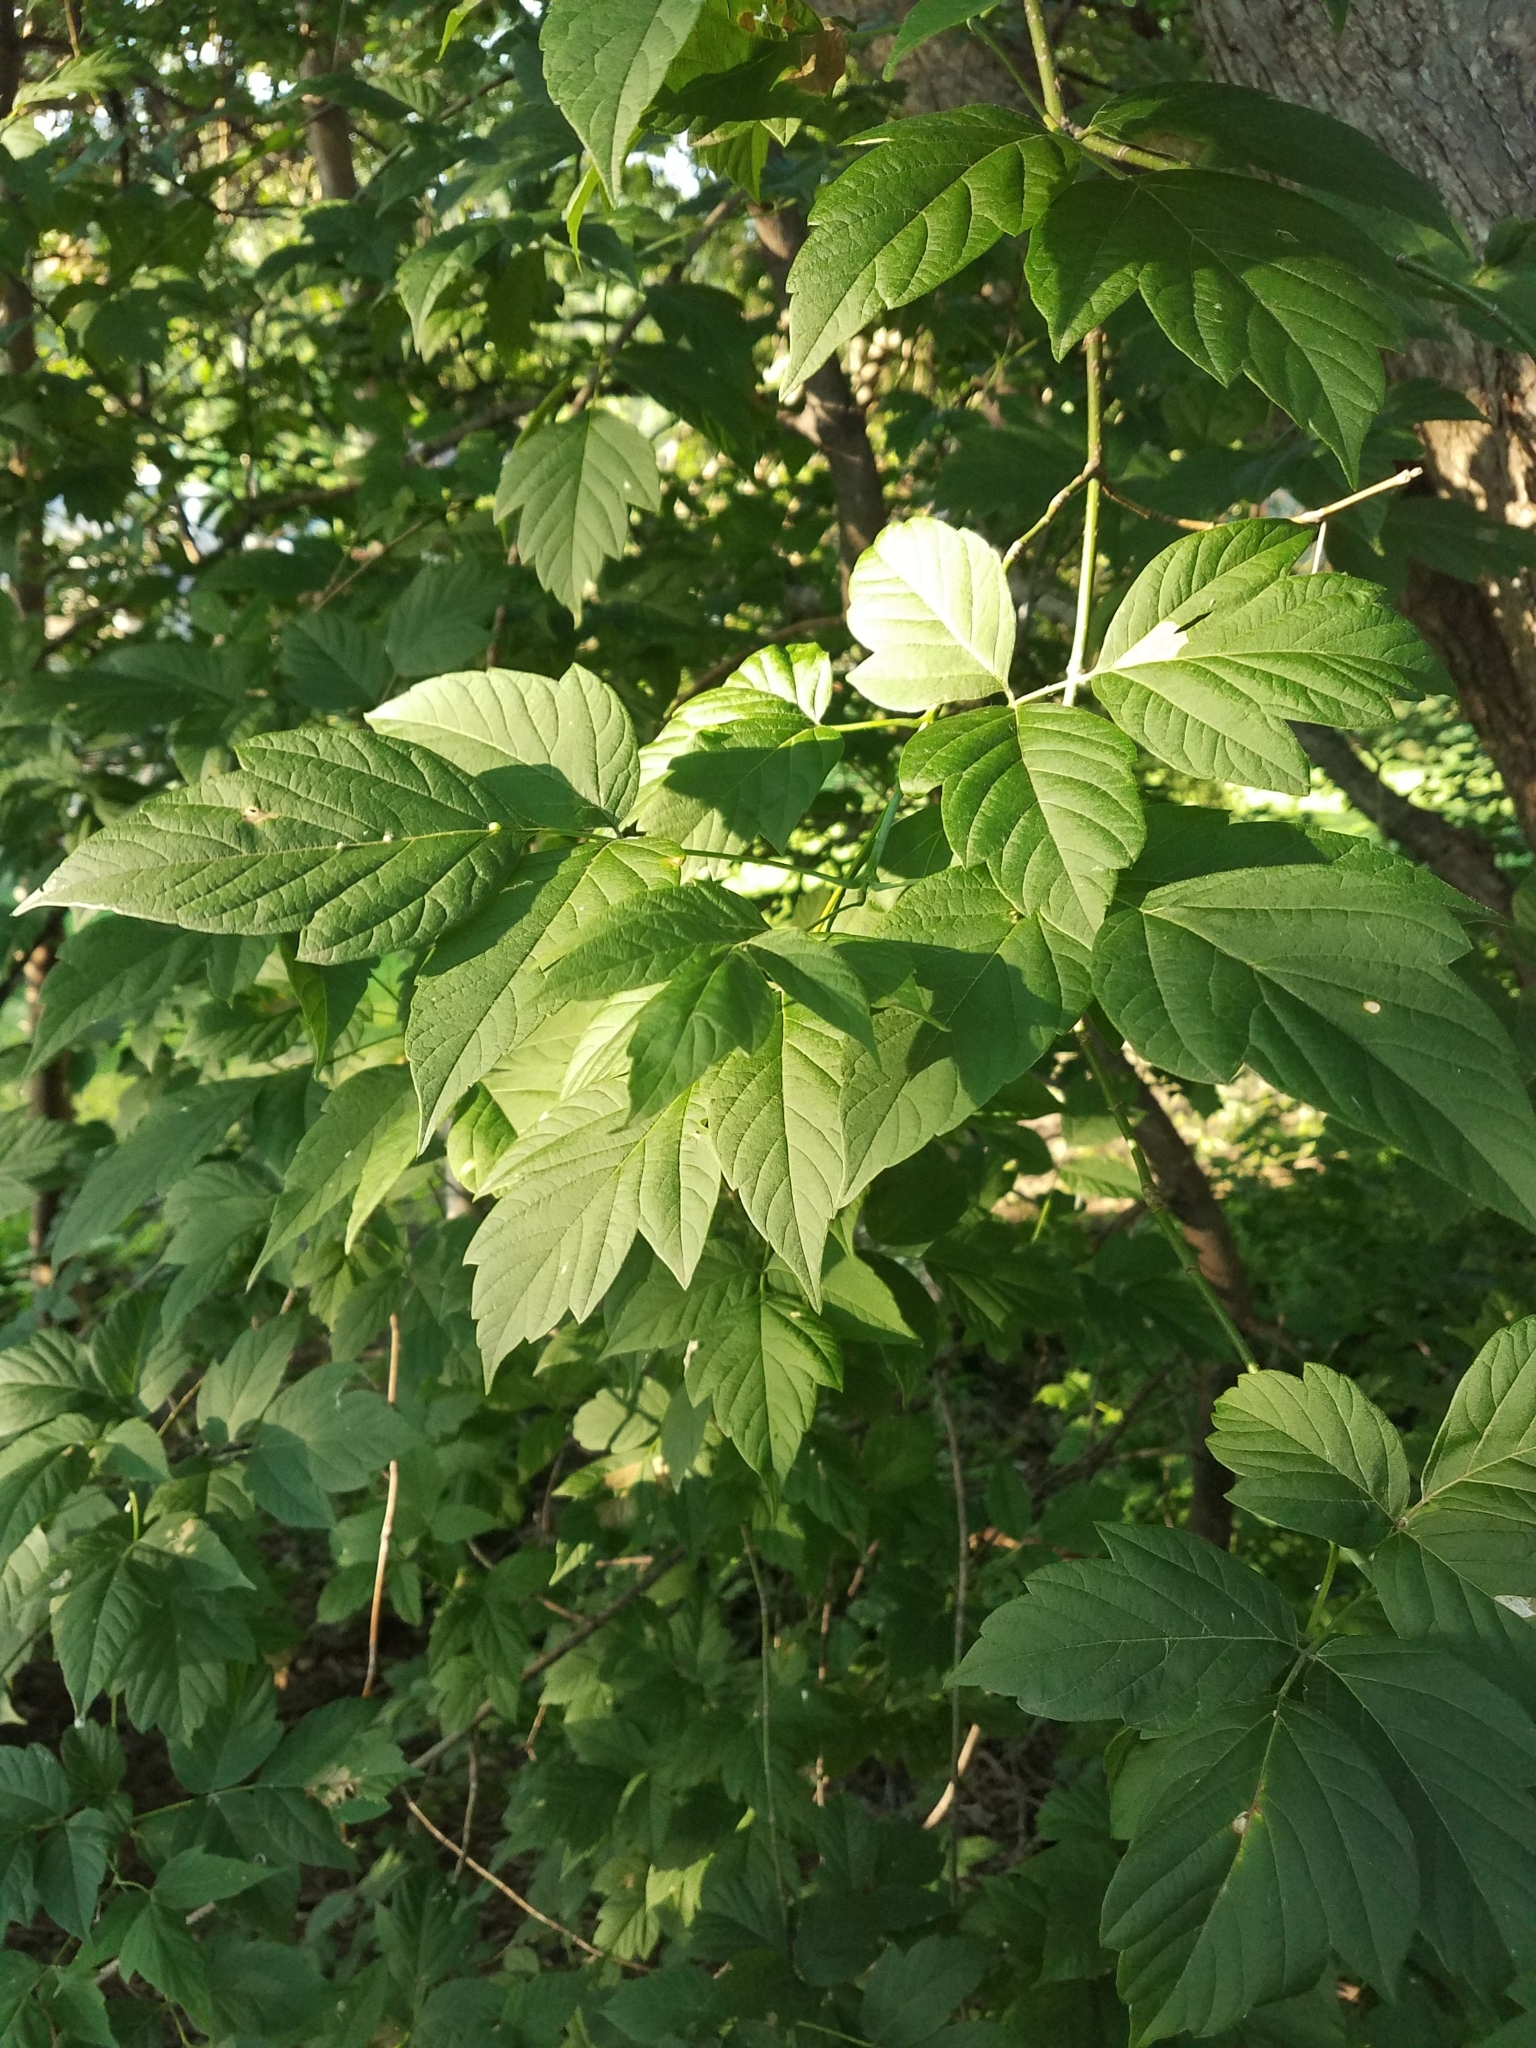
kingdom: Plantae
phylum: Tracheophyta
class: Magnoliopsida
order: Sapindales
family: Sapindaceae
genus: Acer
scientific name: Acer negundo
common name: Ashleaf maple
